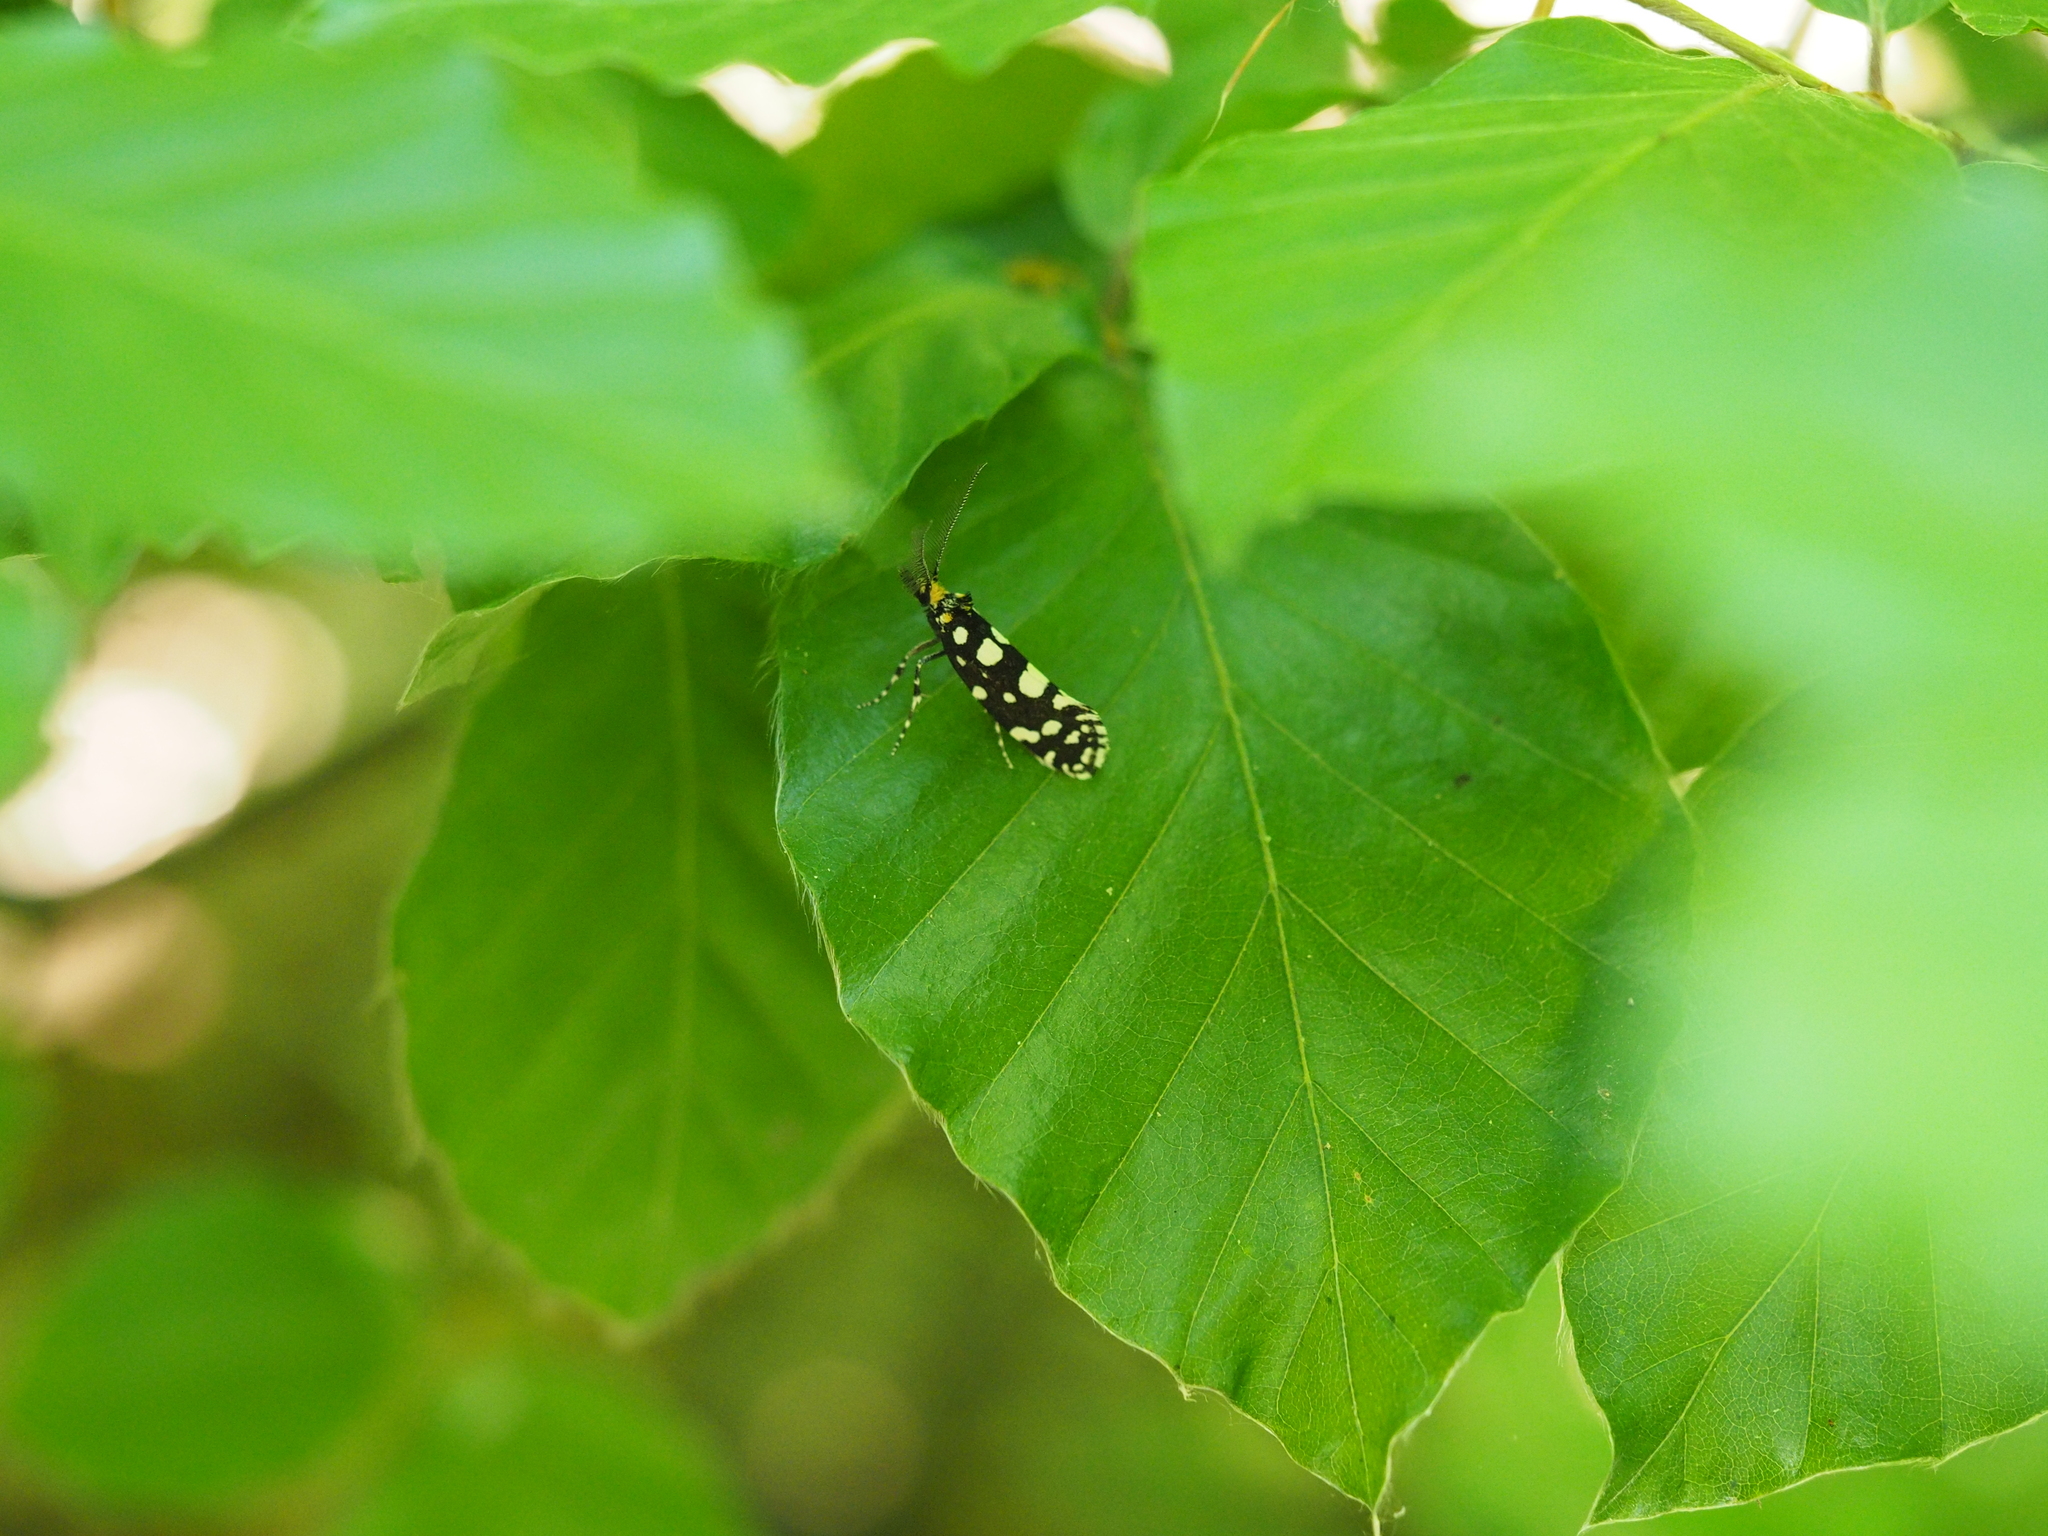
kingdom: Animalia
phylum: Arthropoda
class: Insecta
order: Lepidoptera
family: Tineidae
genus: Euplocamus
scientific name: Euplocamus anthracinalis
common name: Black clothes
